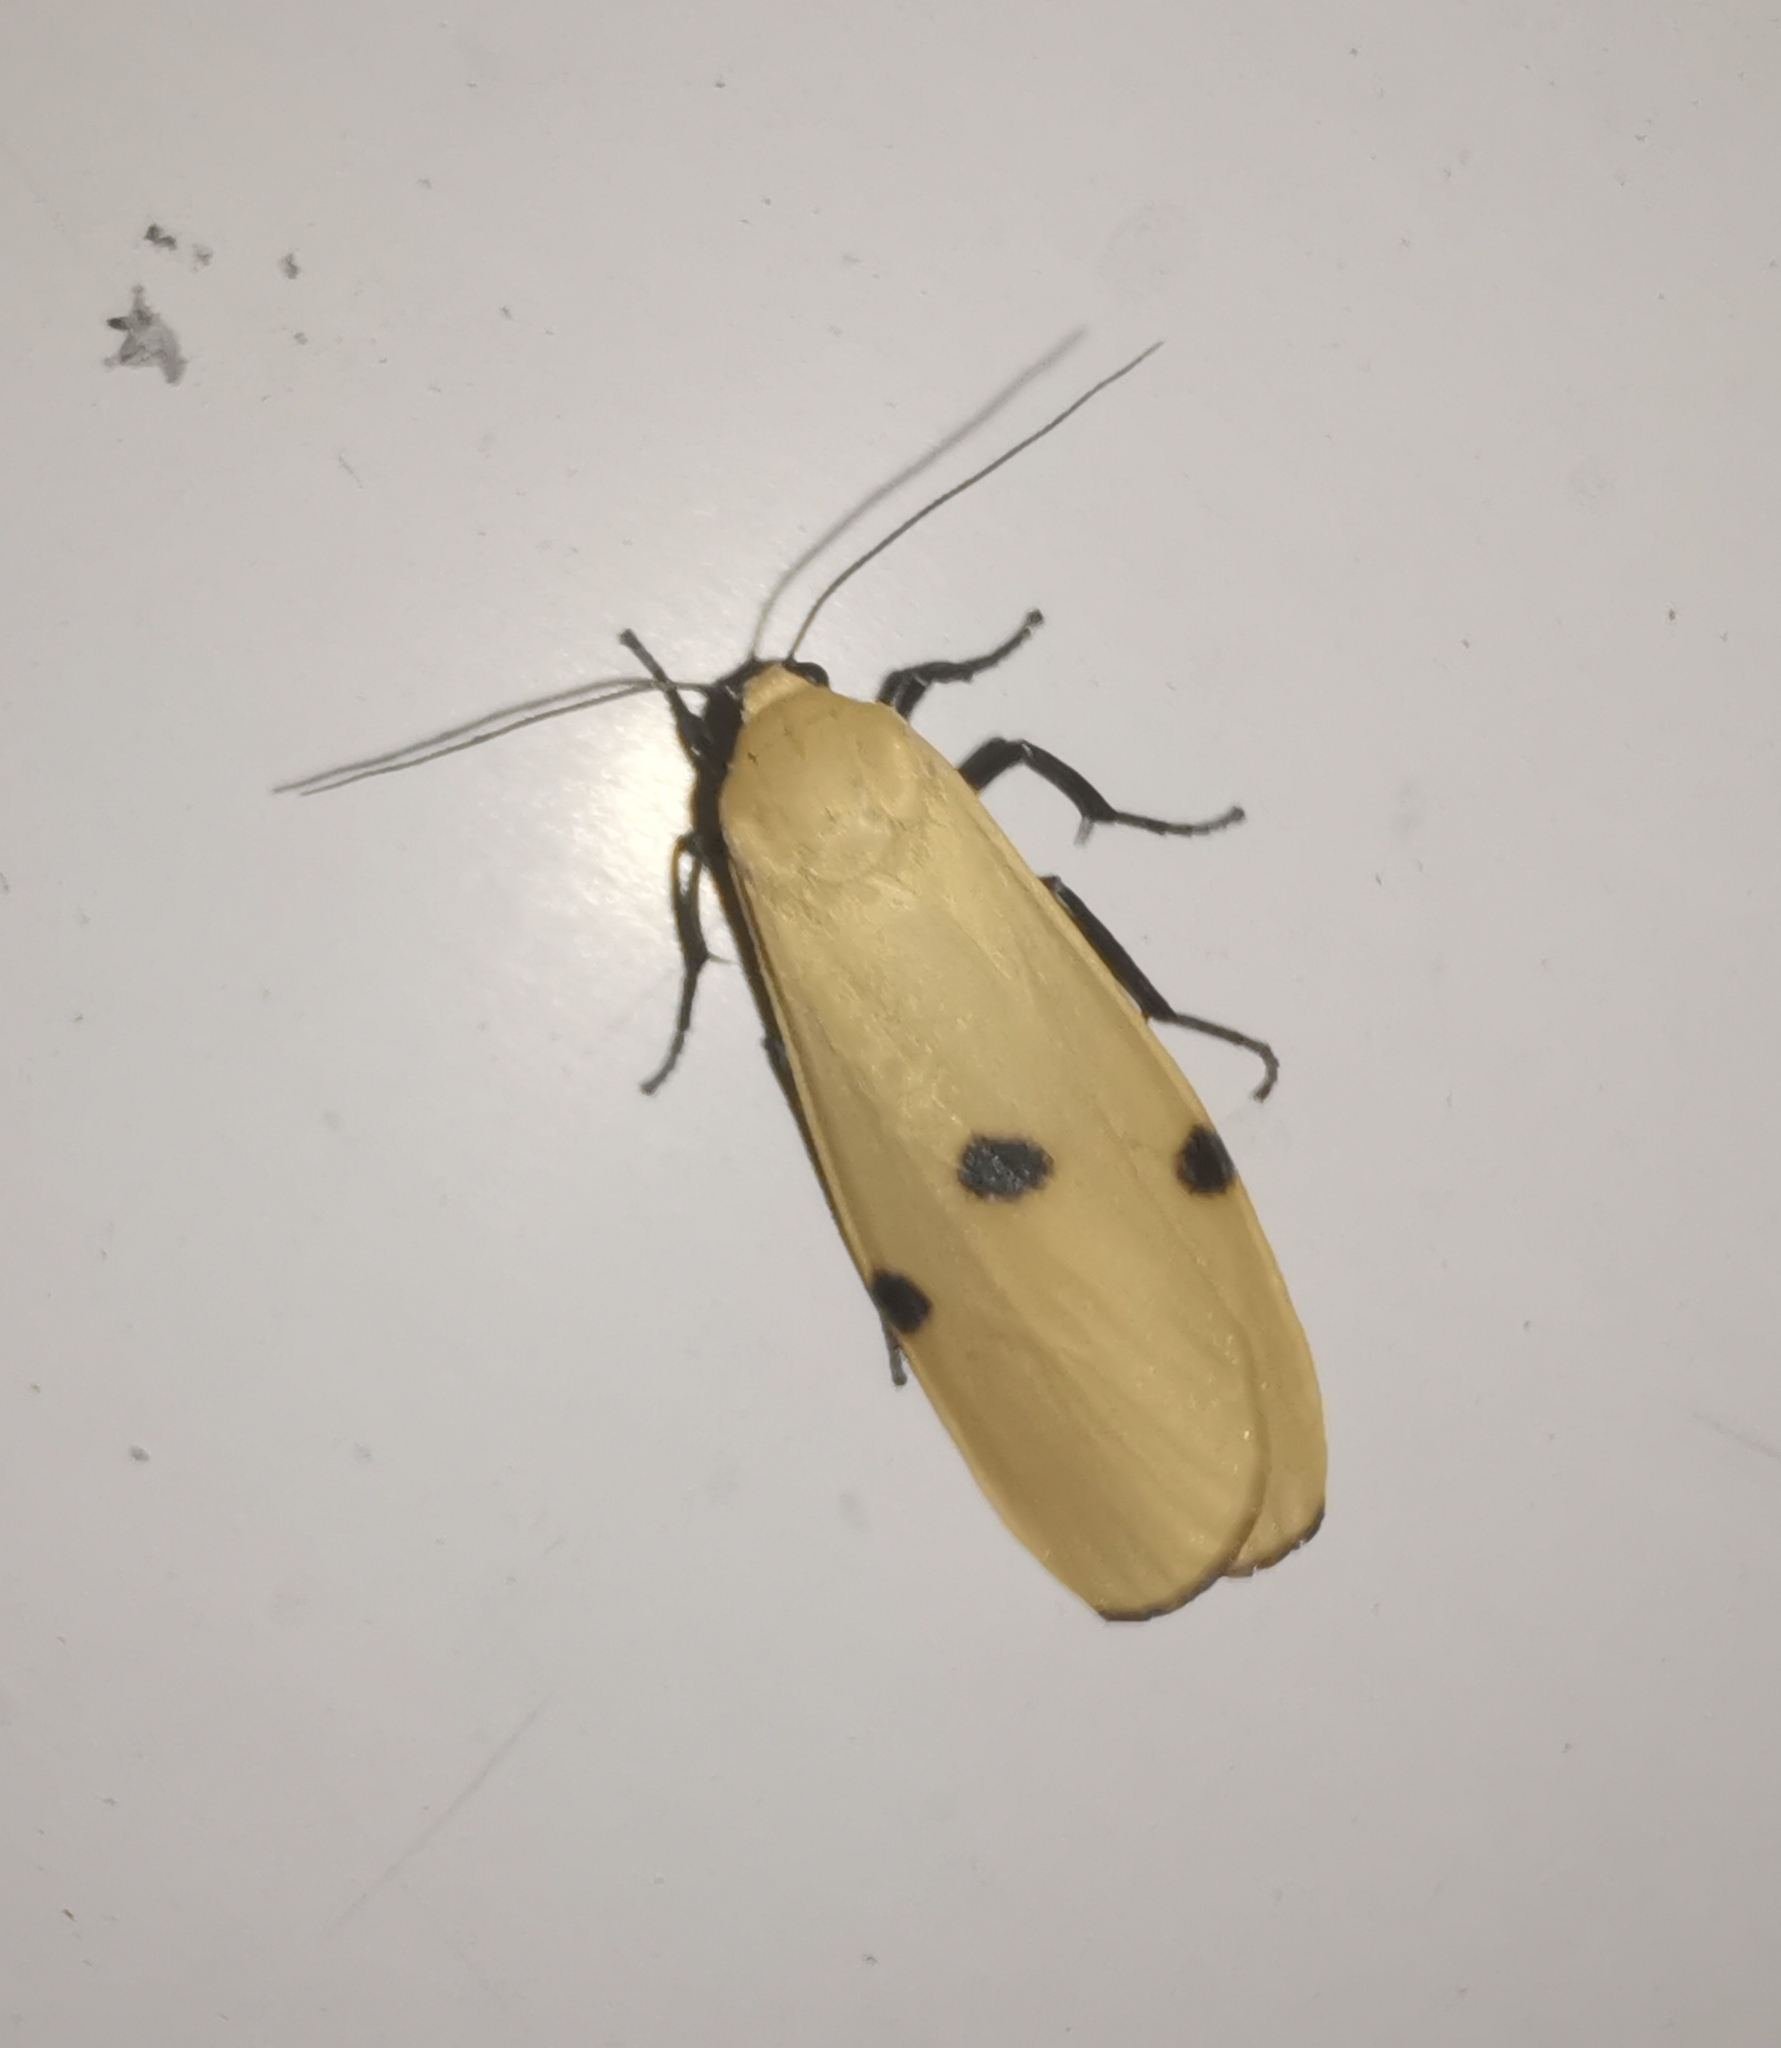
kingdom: Animalia
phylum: Arthropoda
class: Insecta
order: Lepidoptera
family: Erebidae
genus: Lithosia
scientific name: Lithosia quadra
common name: Four-spotted footman
